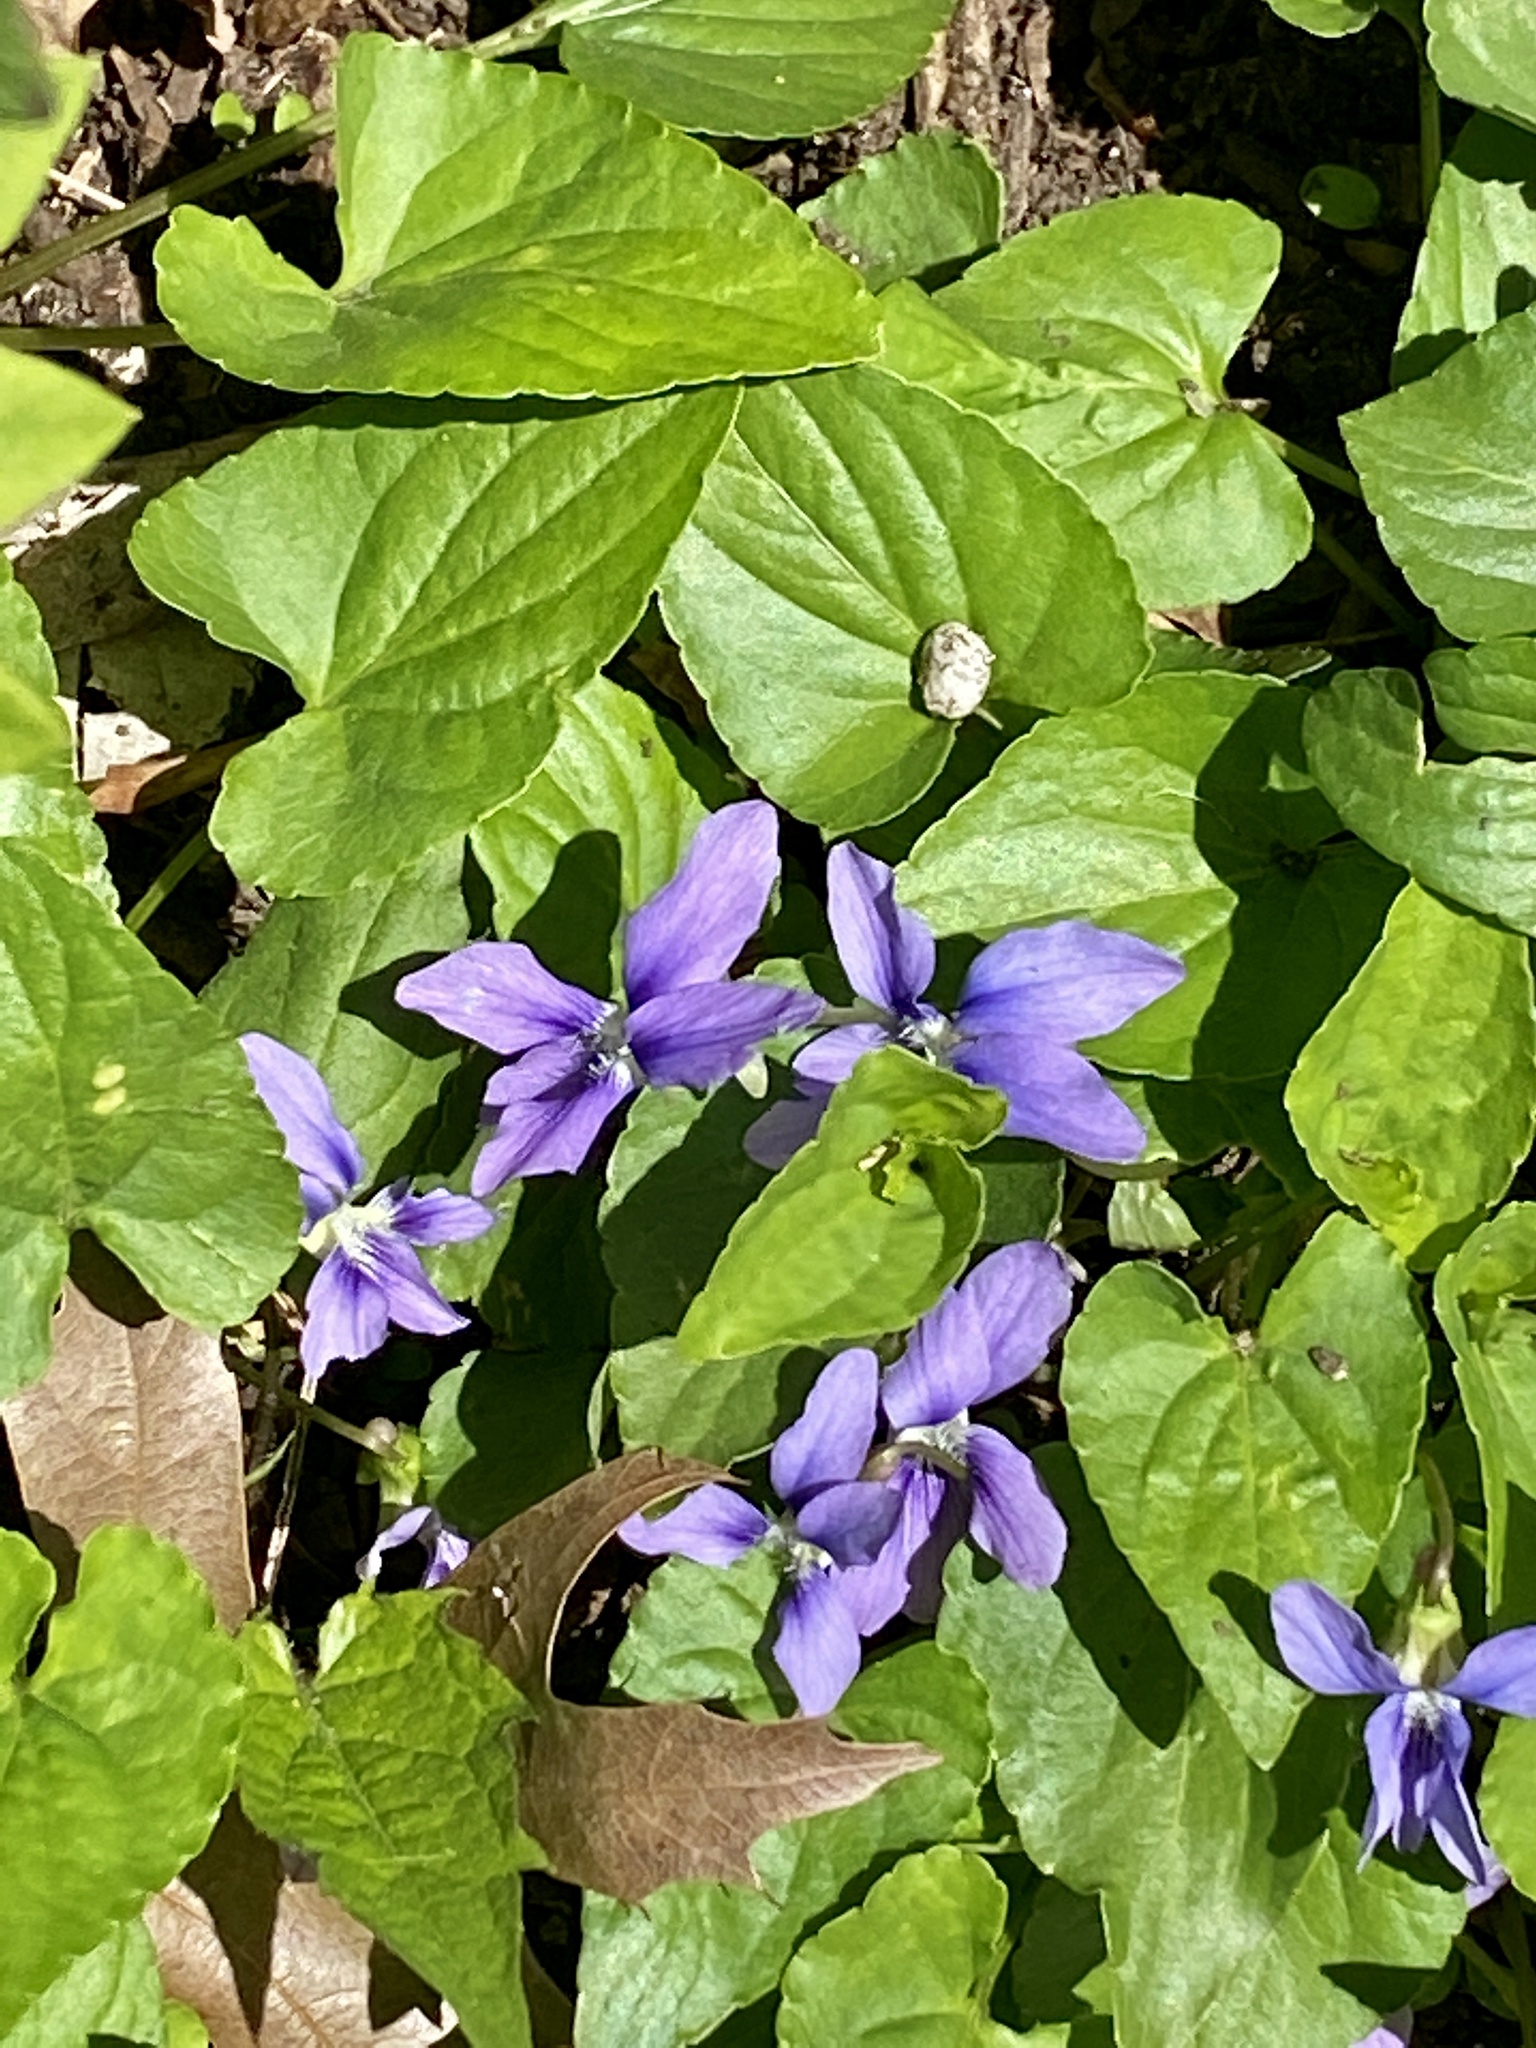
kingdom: Plantae
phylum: Tracheophyta
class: Magnoliopsida
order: Malpighiales
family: Violaceae
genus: Viola
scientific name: Viola sororia
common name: Dooryard violet
